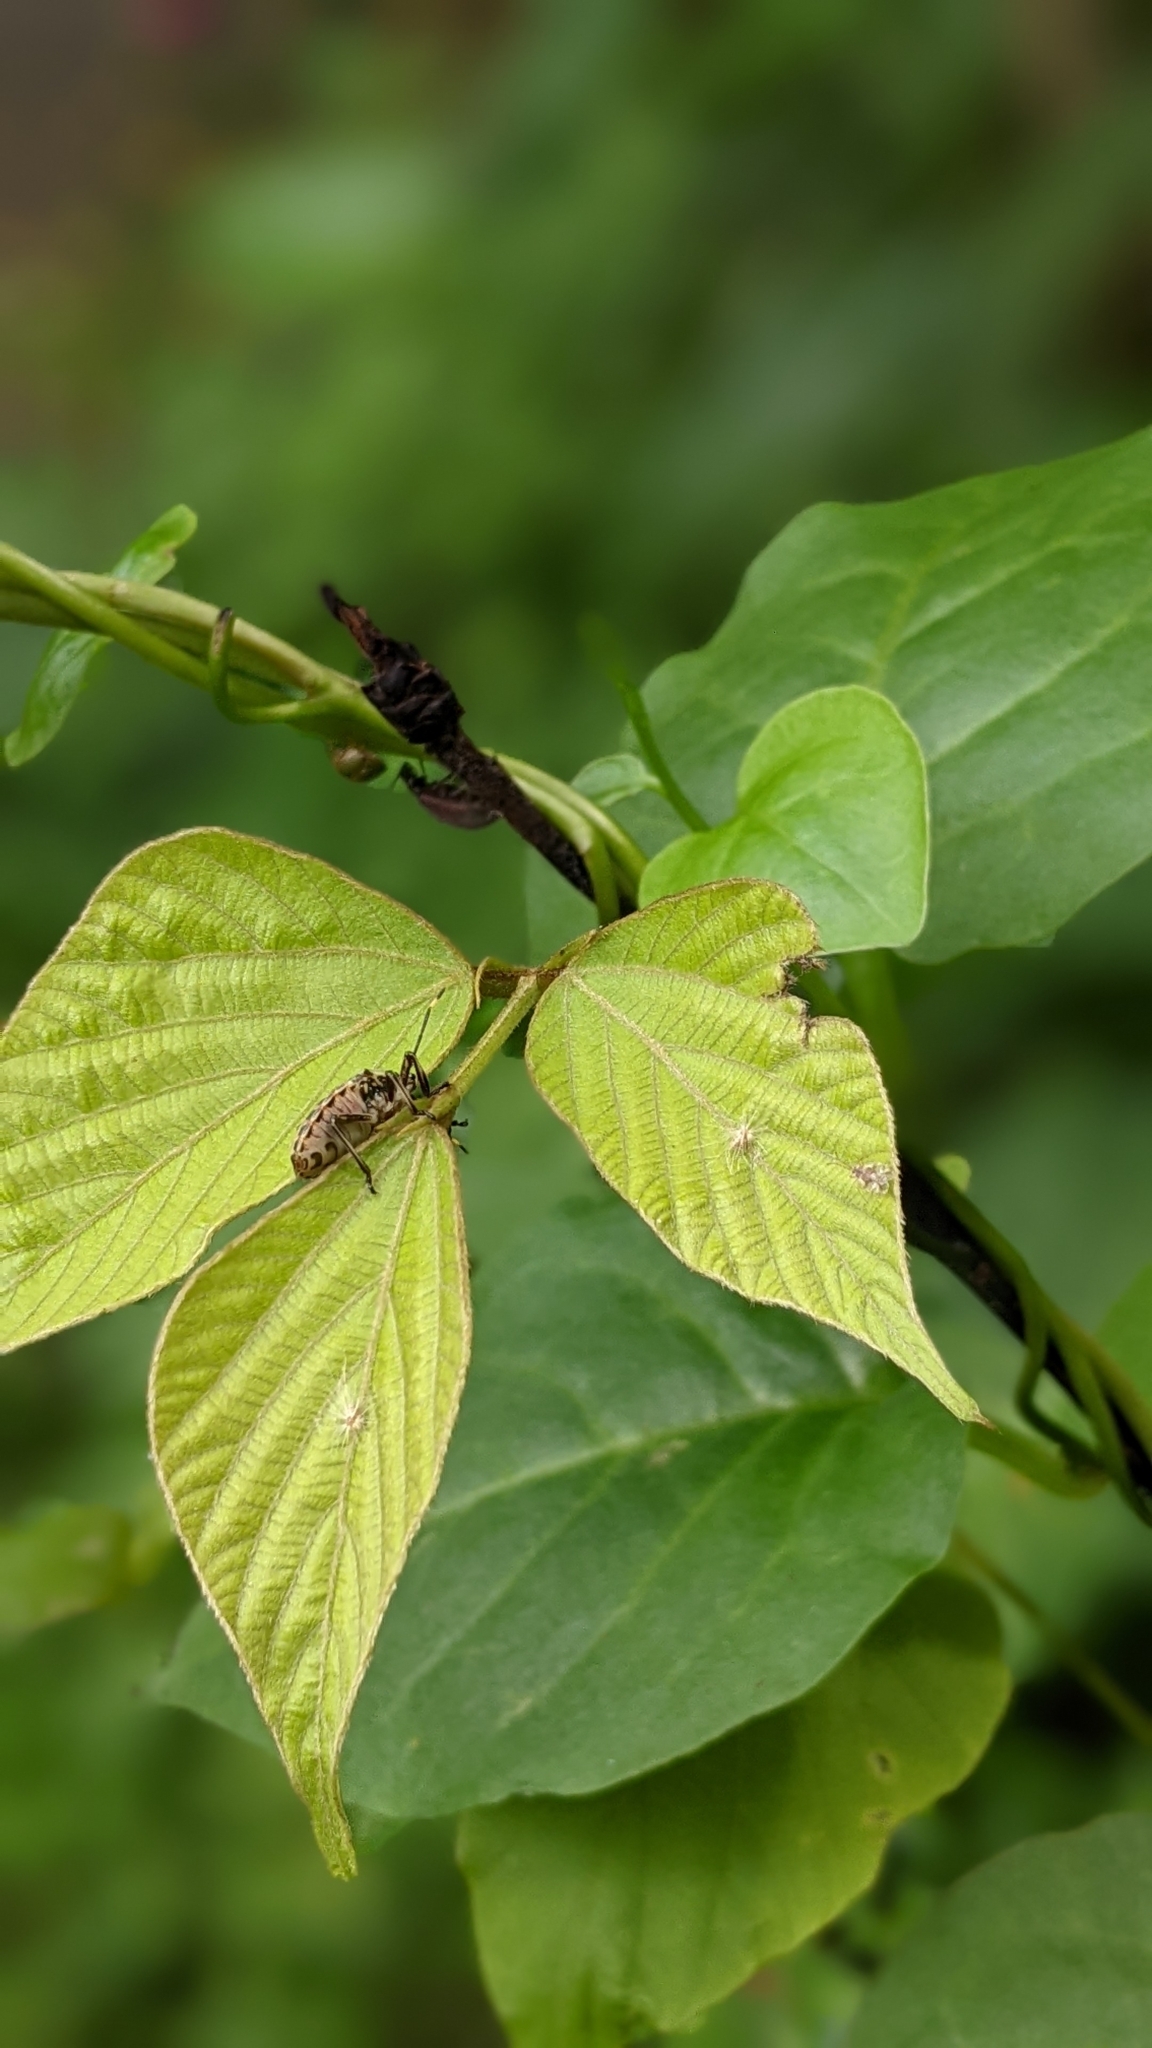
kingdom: Plantae
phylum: Tracheophyta
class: Magnoliopsida
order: Fabales
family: Fabaceae
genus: Pueraria
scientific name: Pueraria montana
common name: Kudzu
